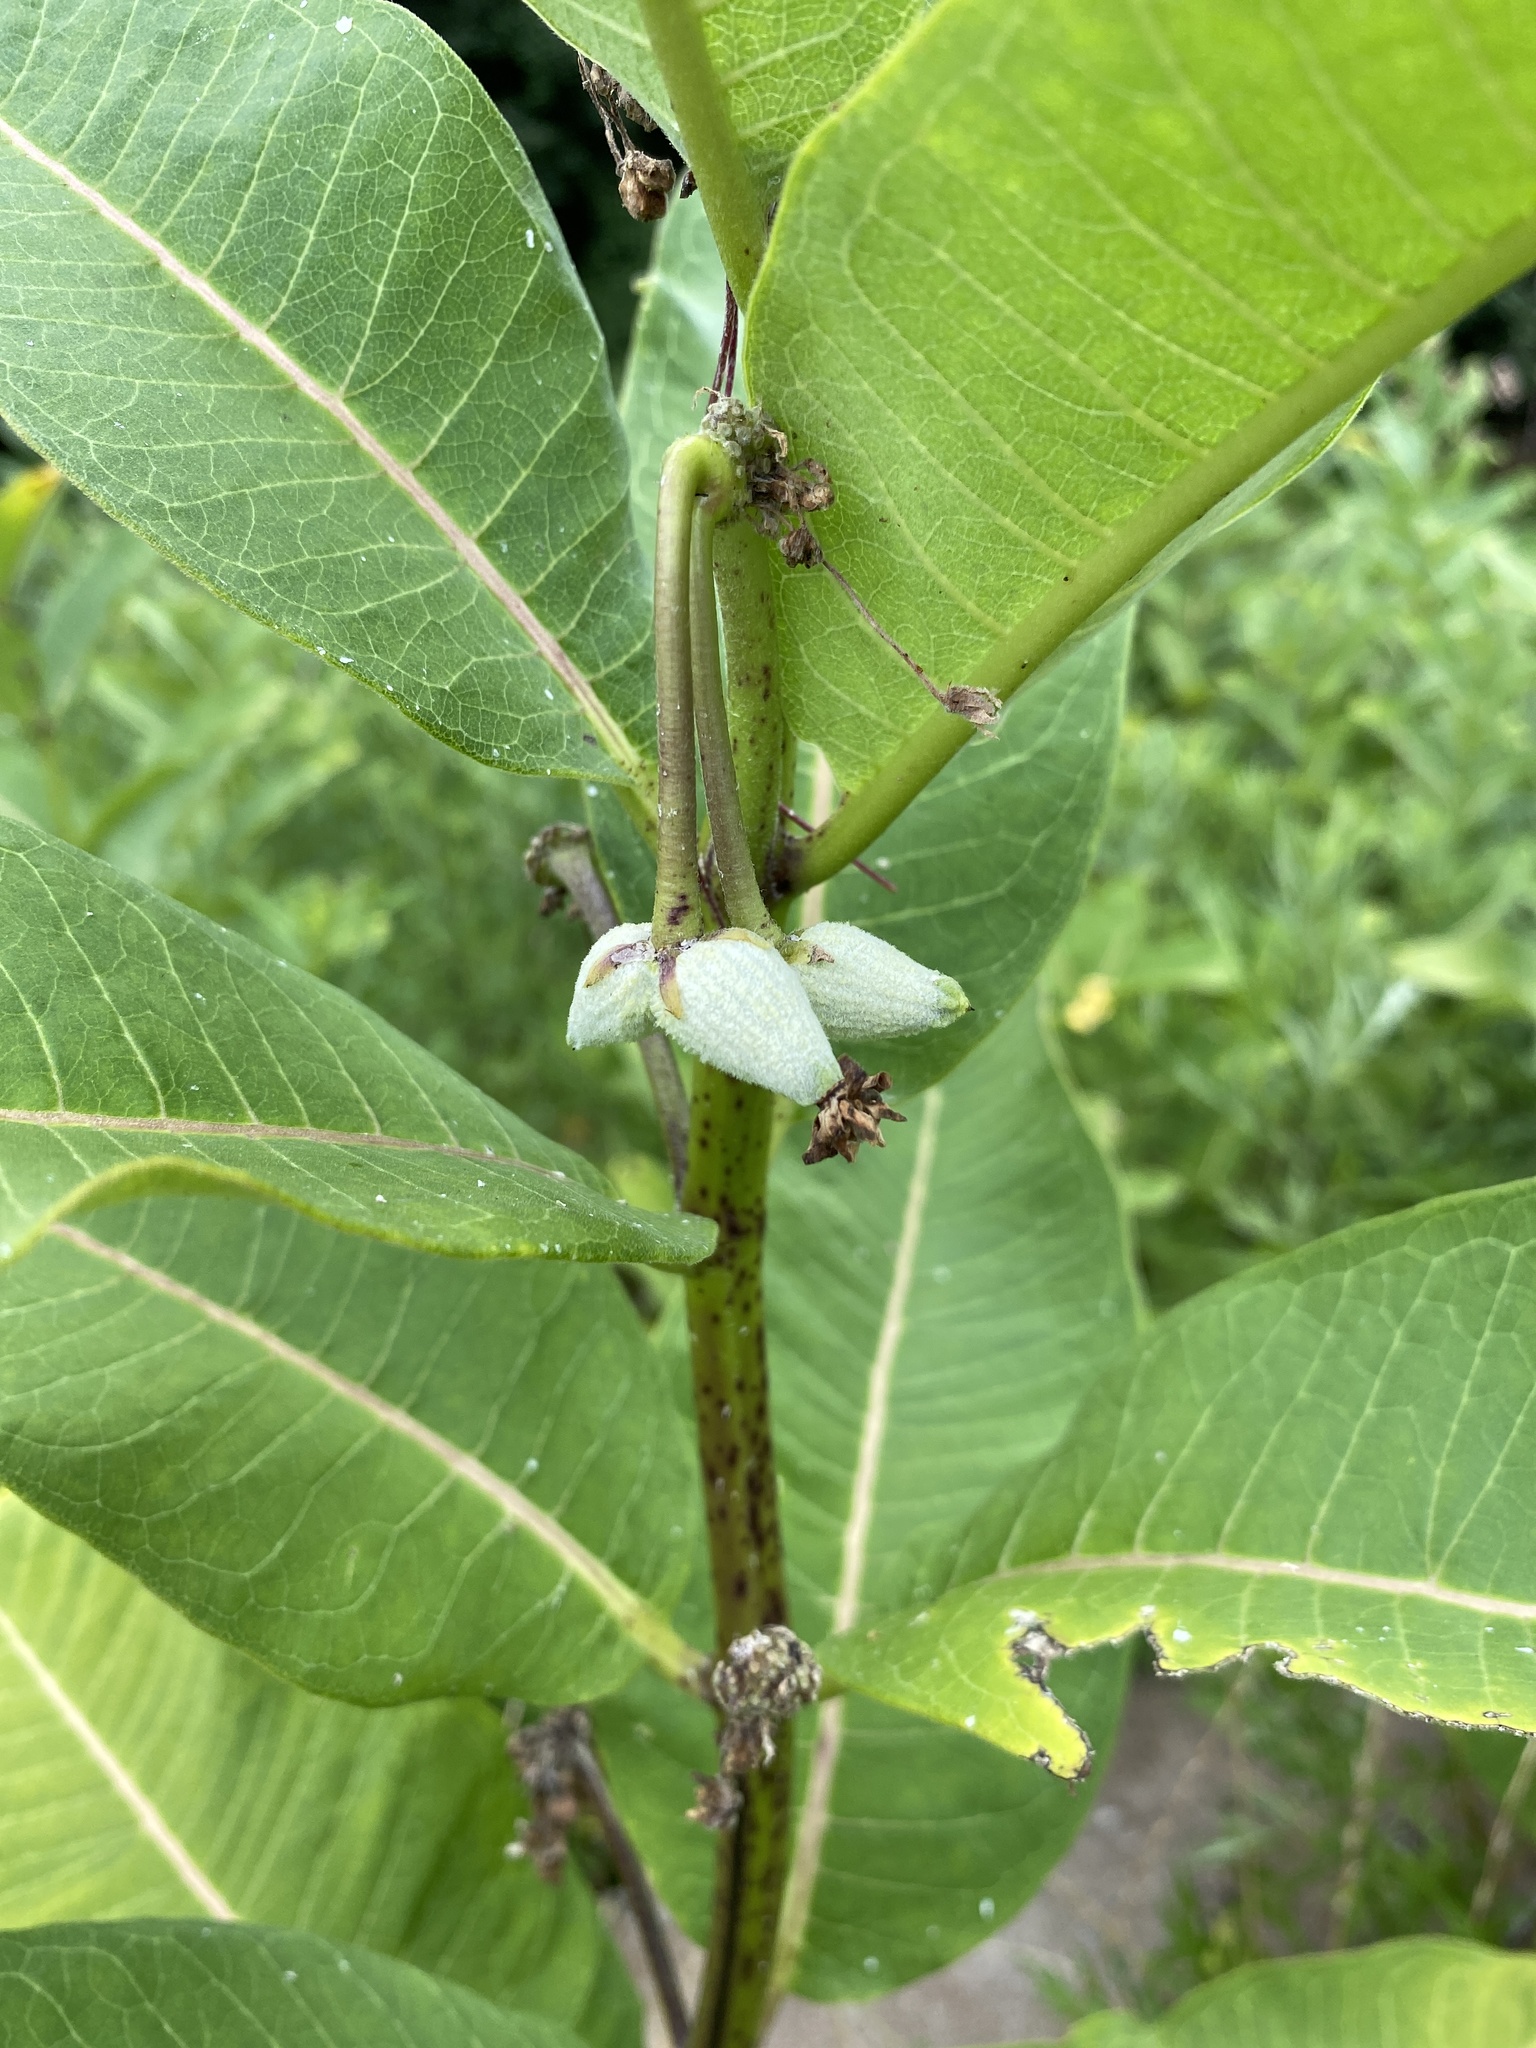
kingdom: Plantae
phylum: Tracheophyta
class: Magnoliopsida
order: Gentianales
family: Apocynaceae
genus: Asclepias
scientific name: Asclepias syriaca
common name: Common milkweed
